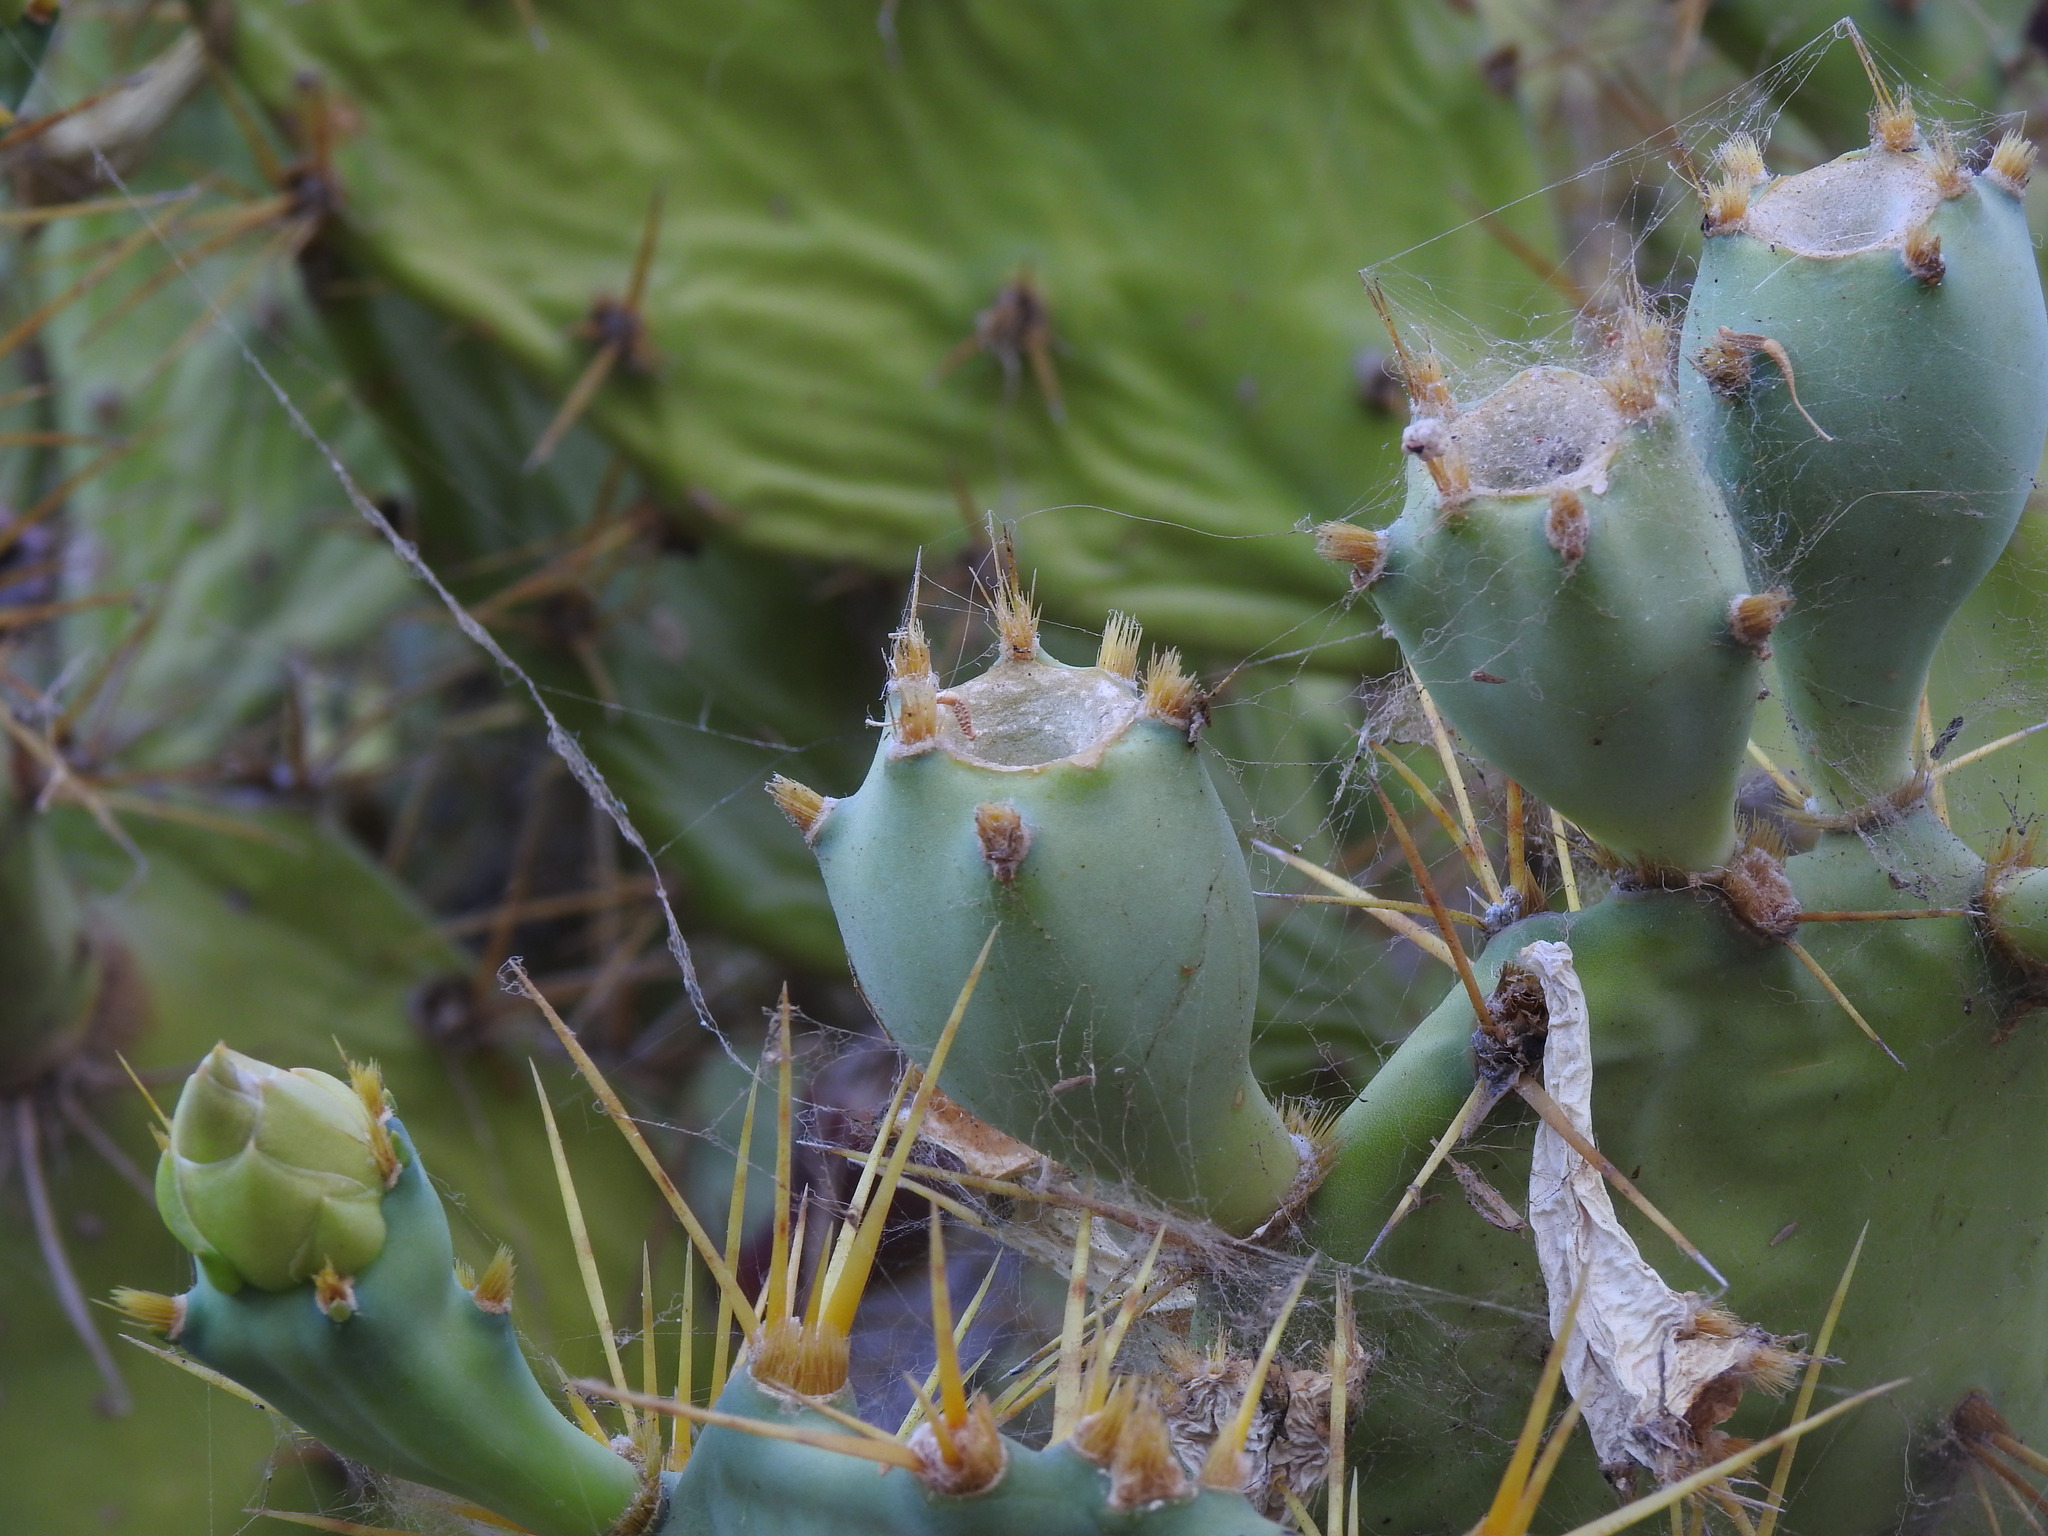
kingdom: Plantae
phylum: Tracheophyta
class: Magnoliopsida
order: Caryophyllales
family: Cactaceae
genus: Opuntia
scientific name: Opuntia stricta
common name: Erect pricklypear
